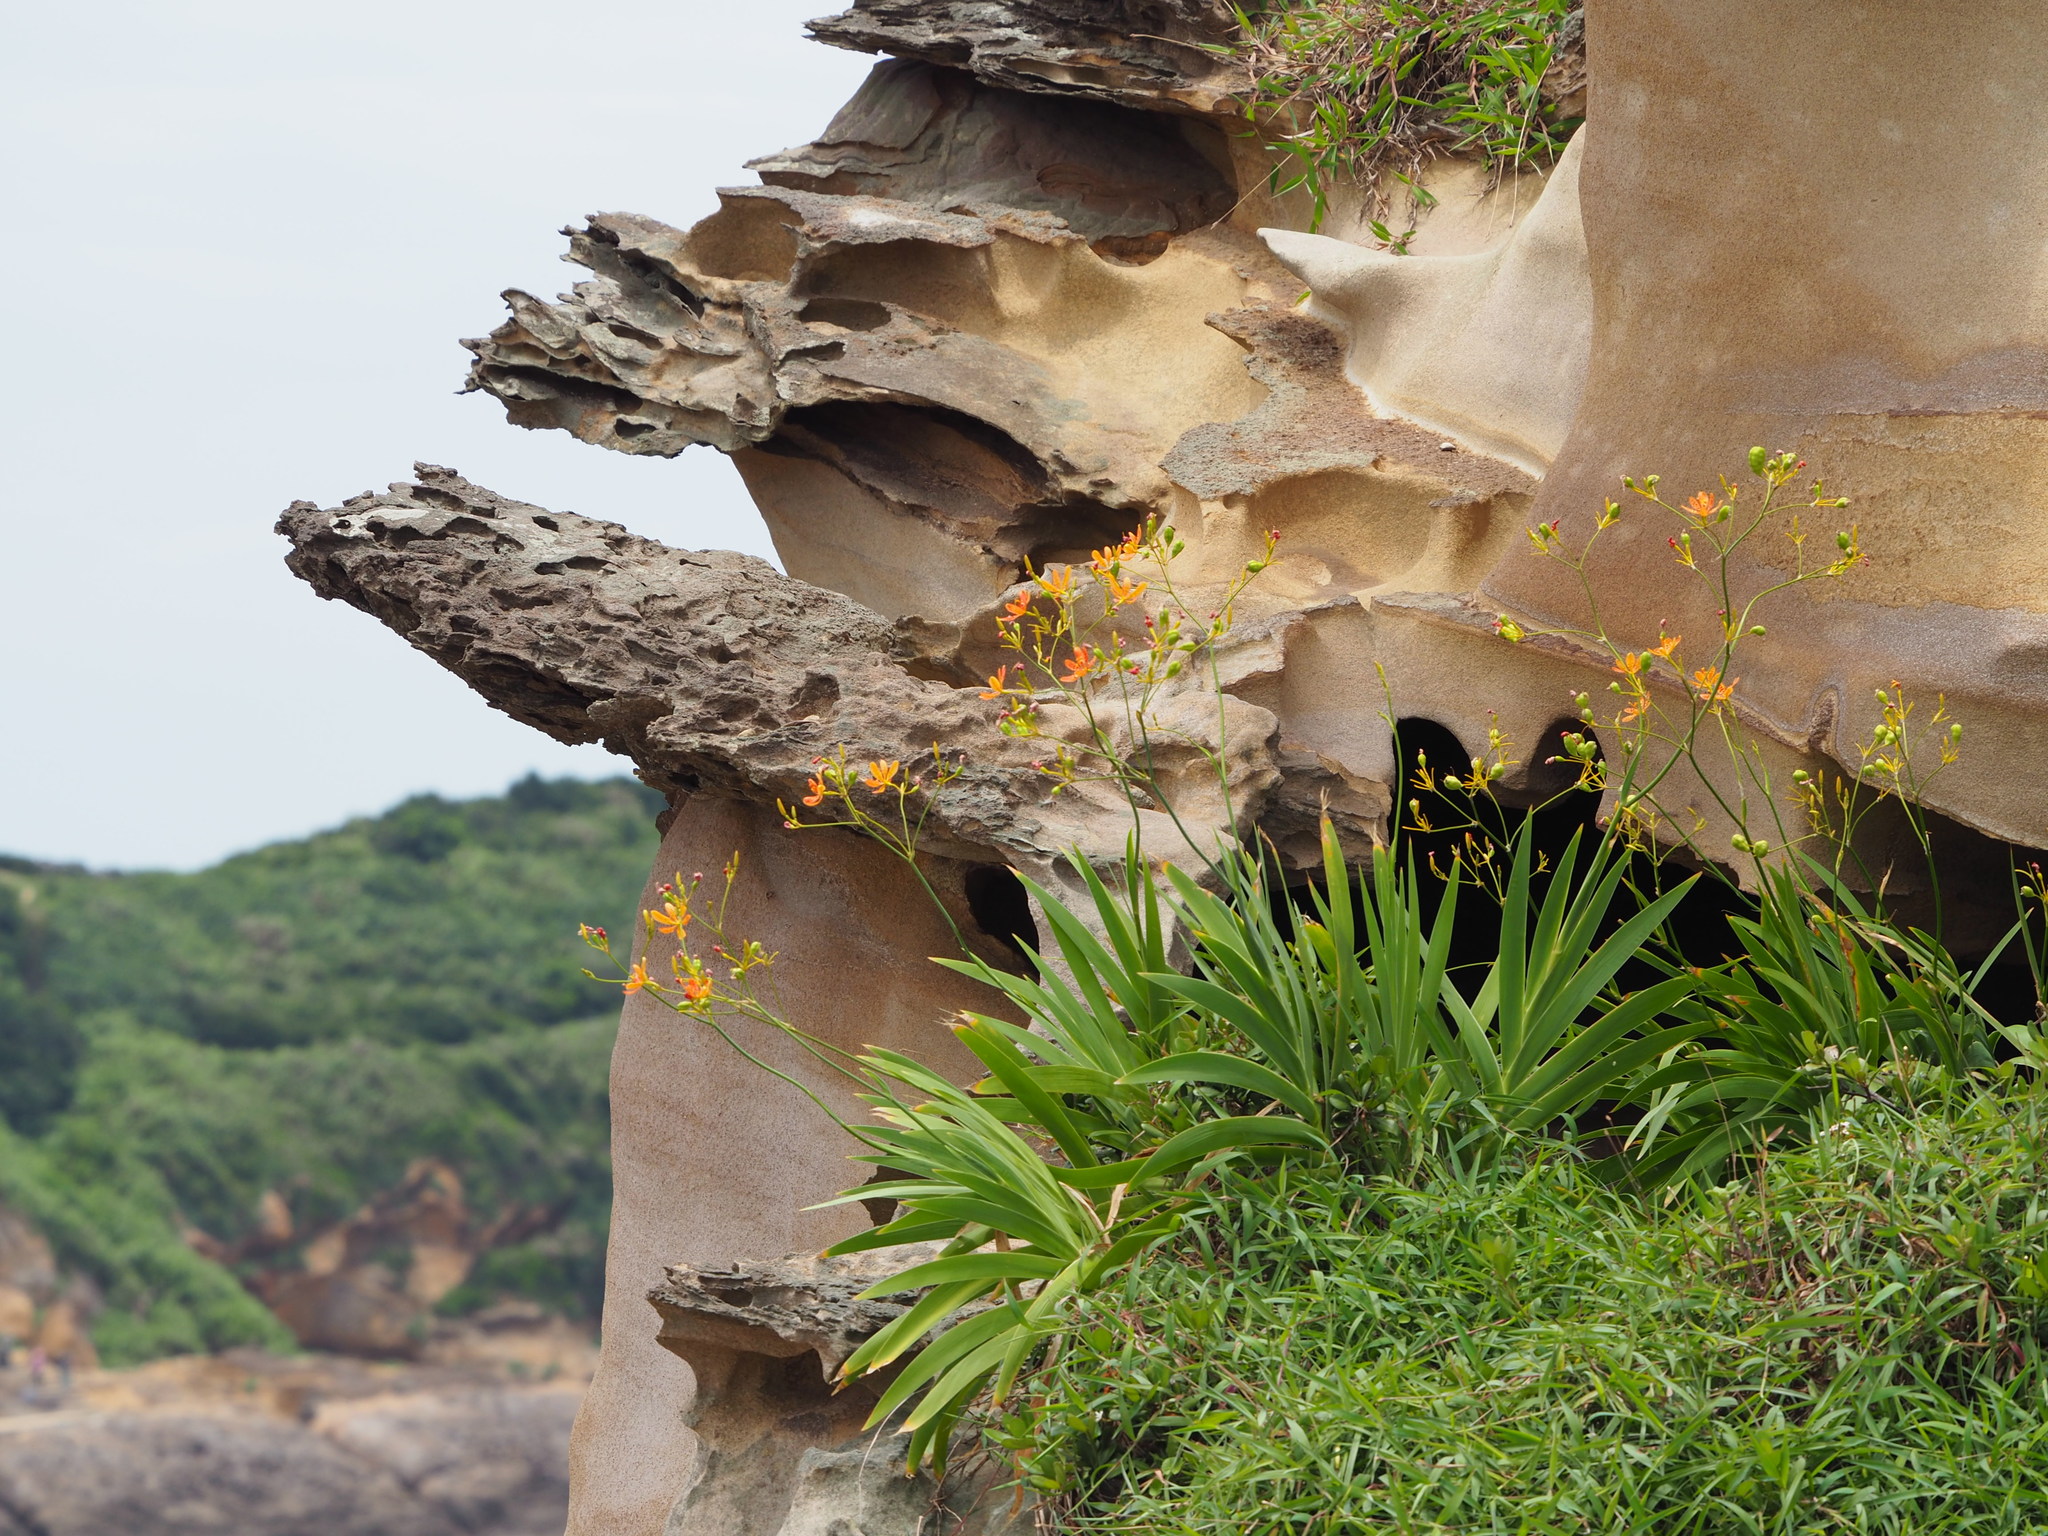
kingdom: Plantae
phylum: Tracheophyta
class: Liliopsida
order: Asparagales
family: Iridaceae
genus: Iris
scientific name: Iris domestica
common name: Belamcanda
